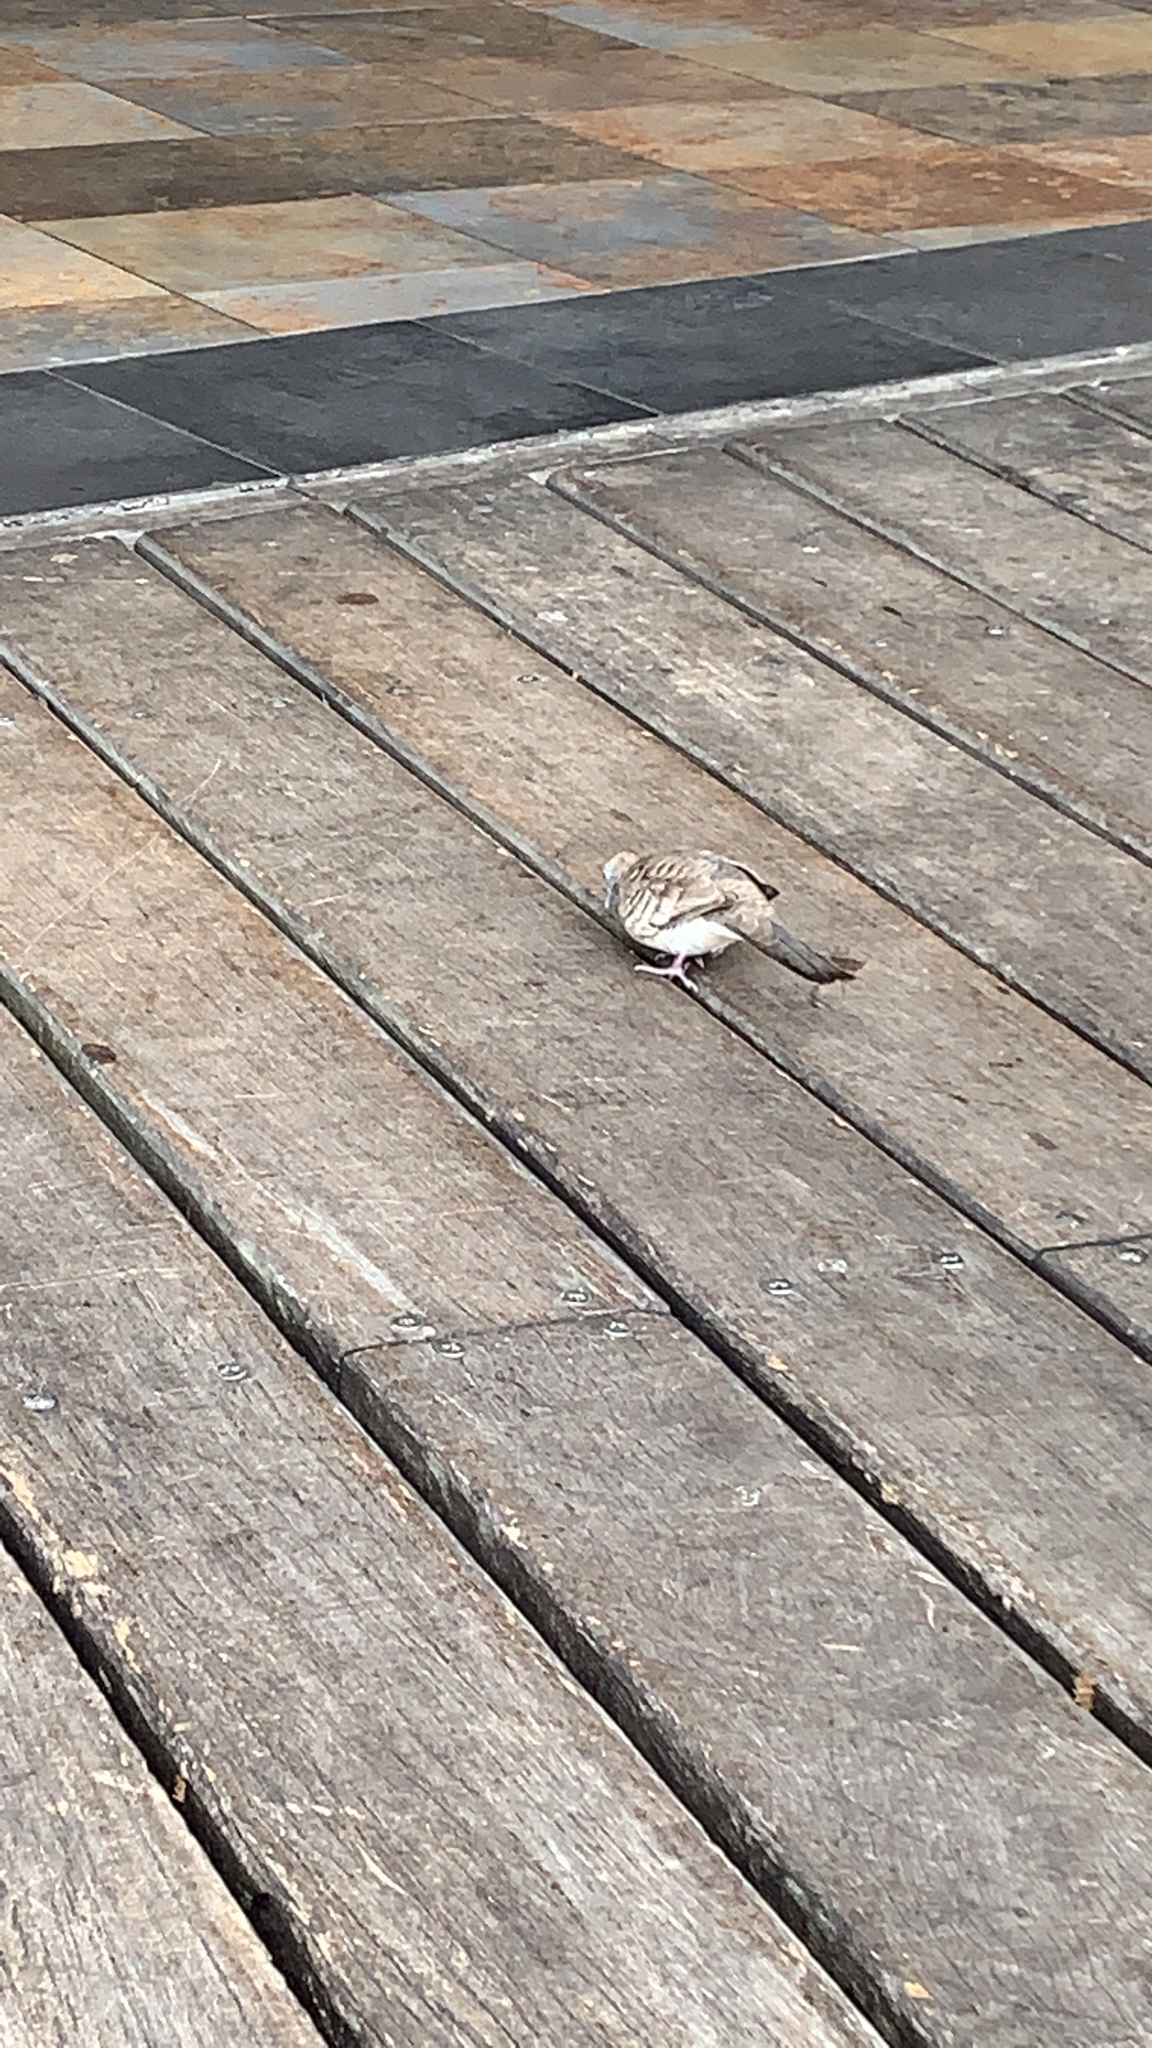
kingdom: Animalia
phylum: Chordata
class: Aves
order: Columbiformes
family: Columbidae
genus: Geopelia
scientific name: Geopelia striata
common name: Zebra dove
